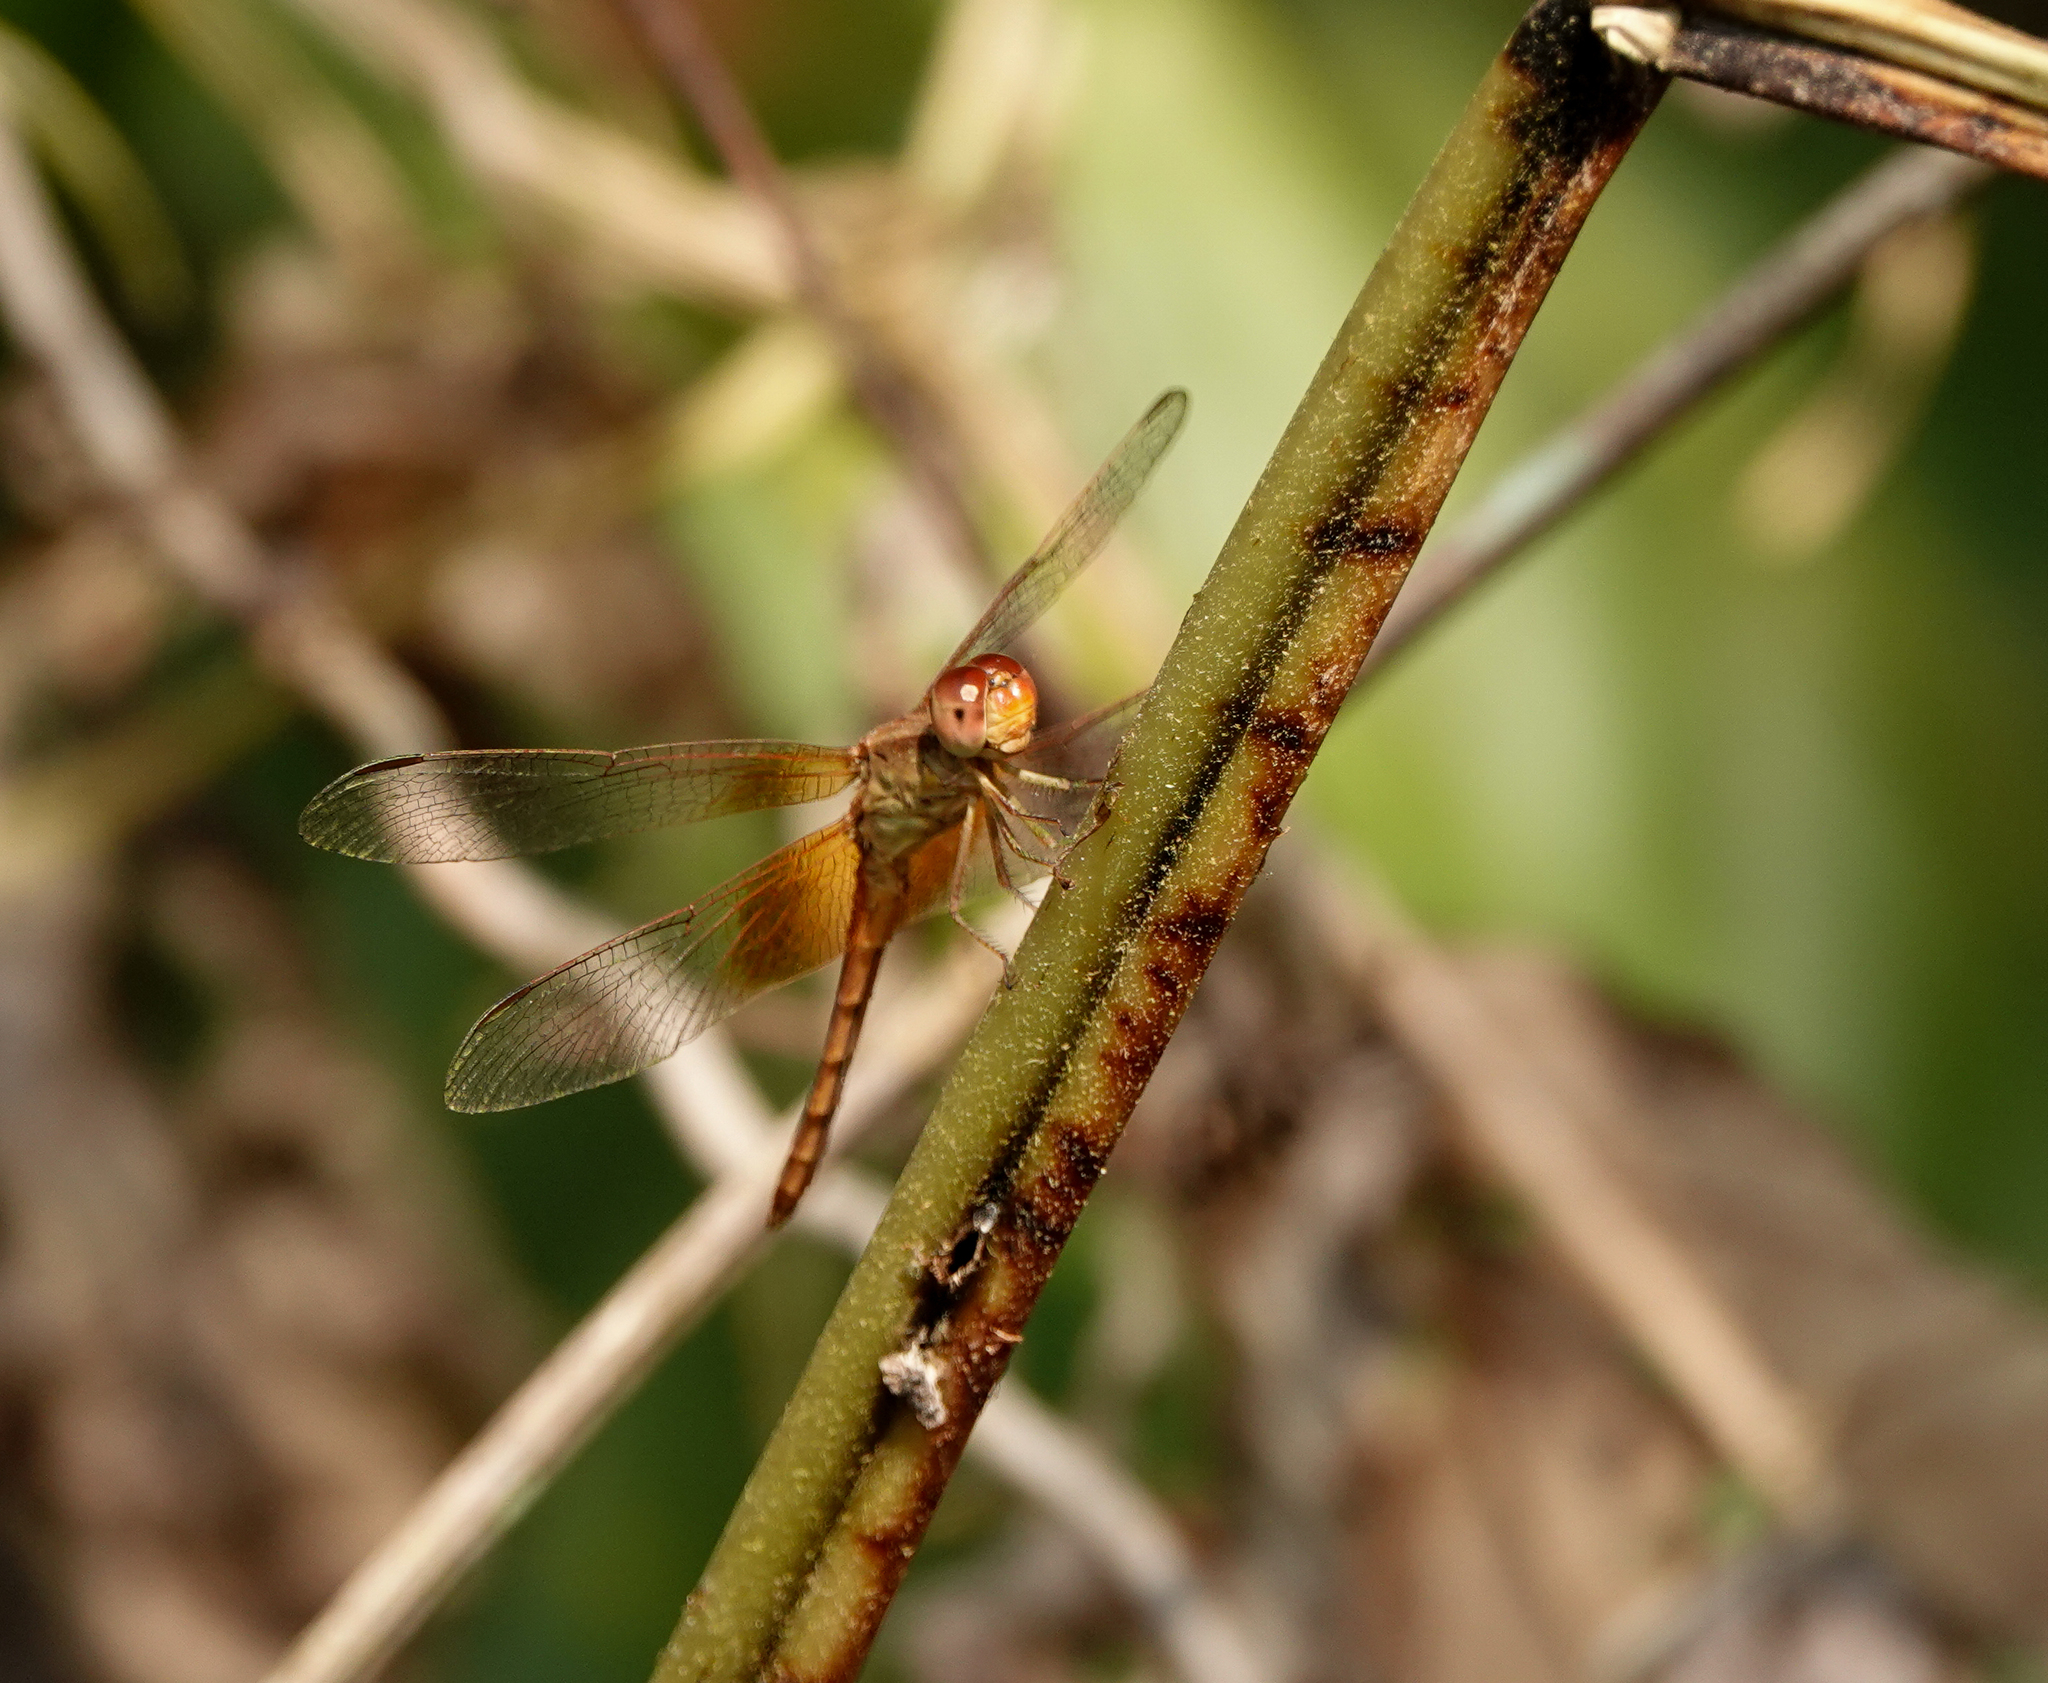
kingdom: Animalia
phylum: Arthropoda
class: Insecta
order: Odonata
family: Libellulidae
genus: Neurothemis
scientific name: Neurothemis intermedia
